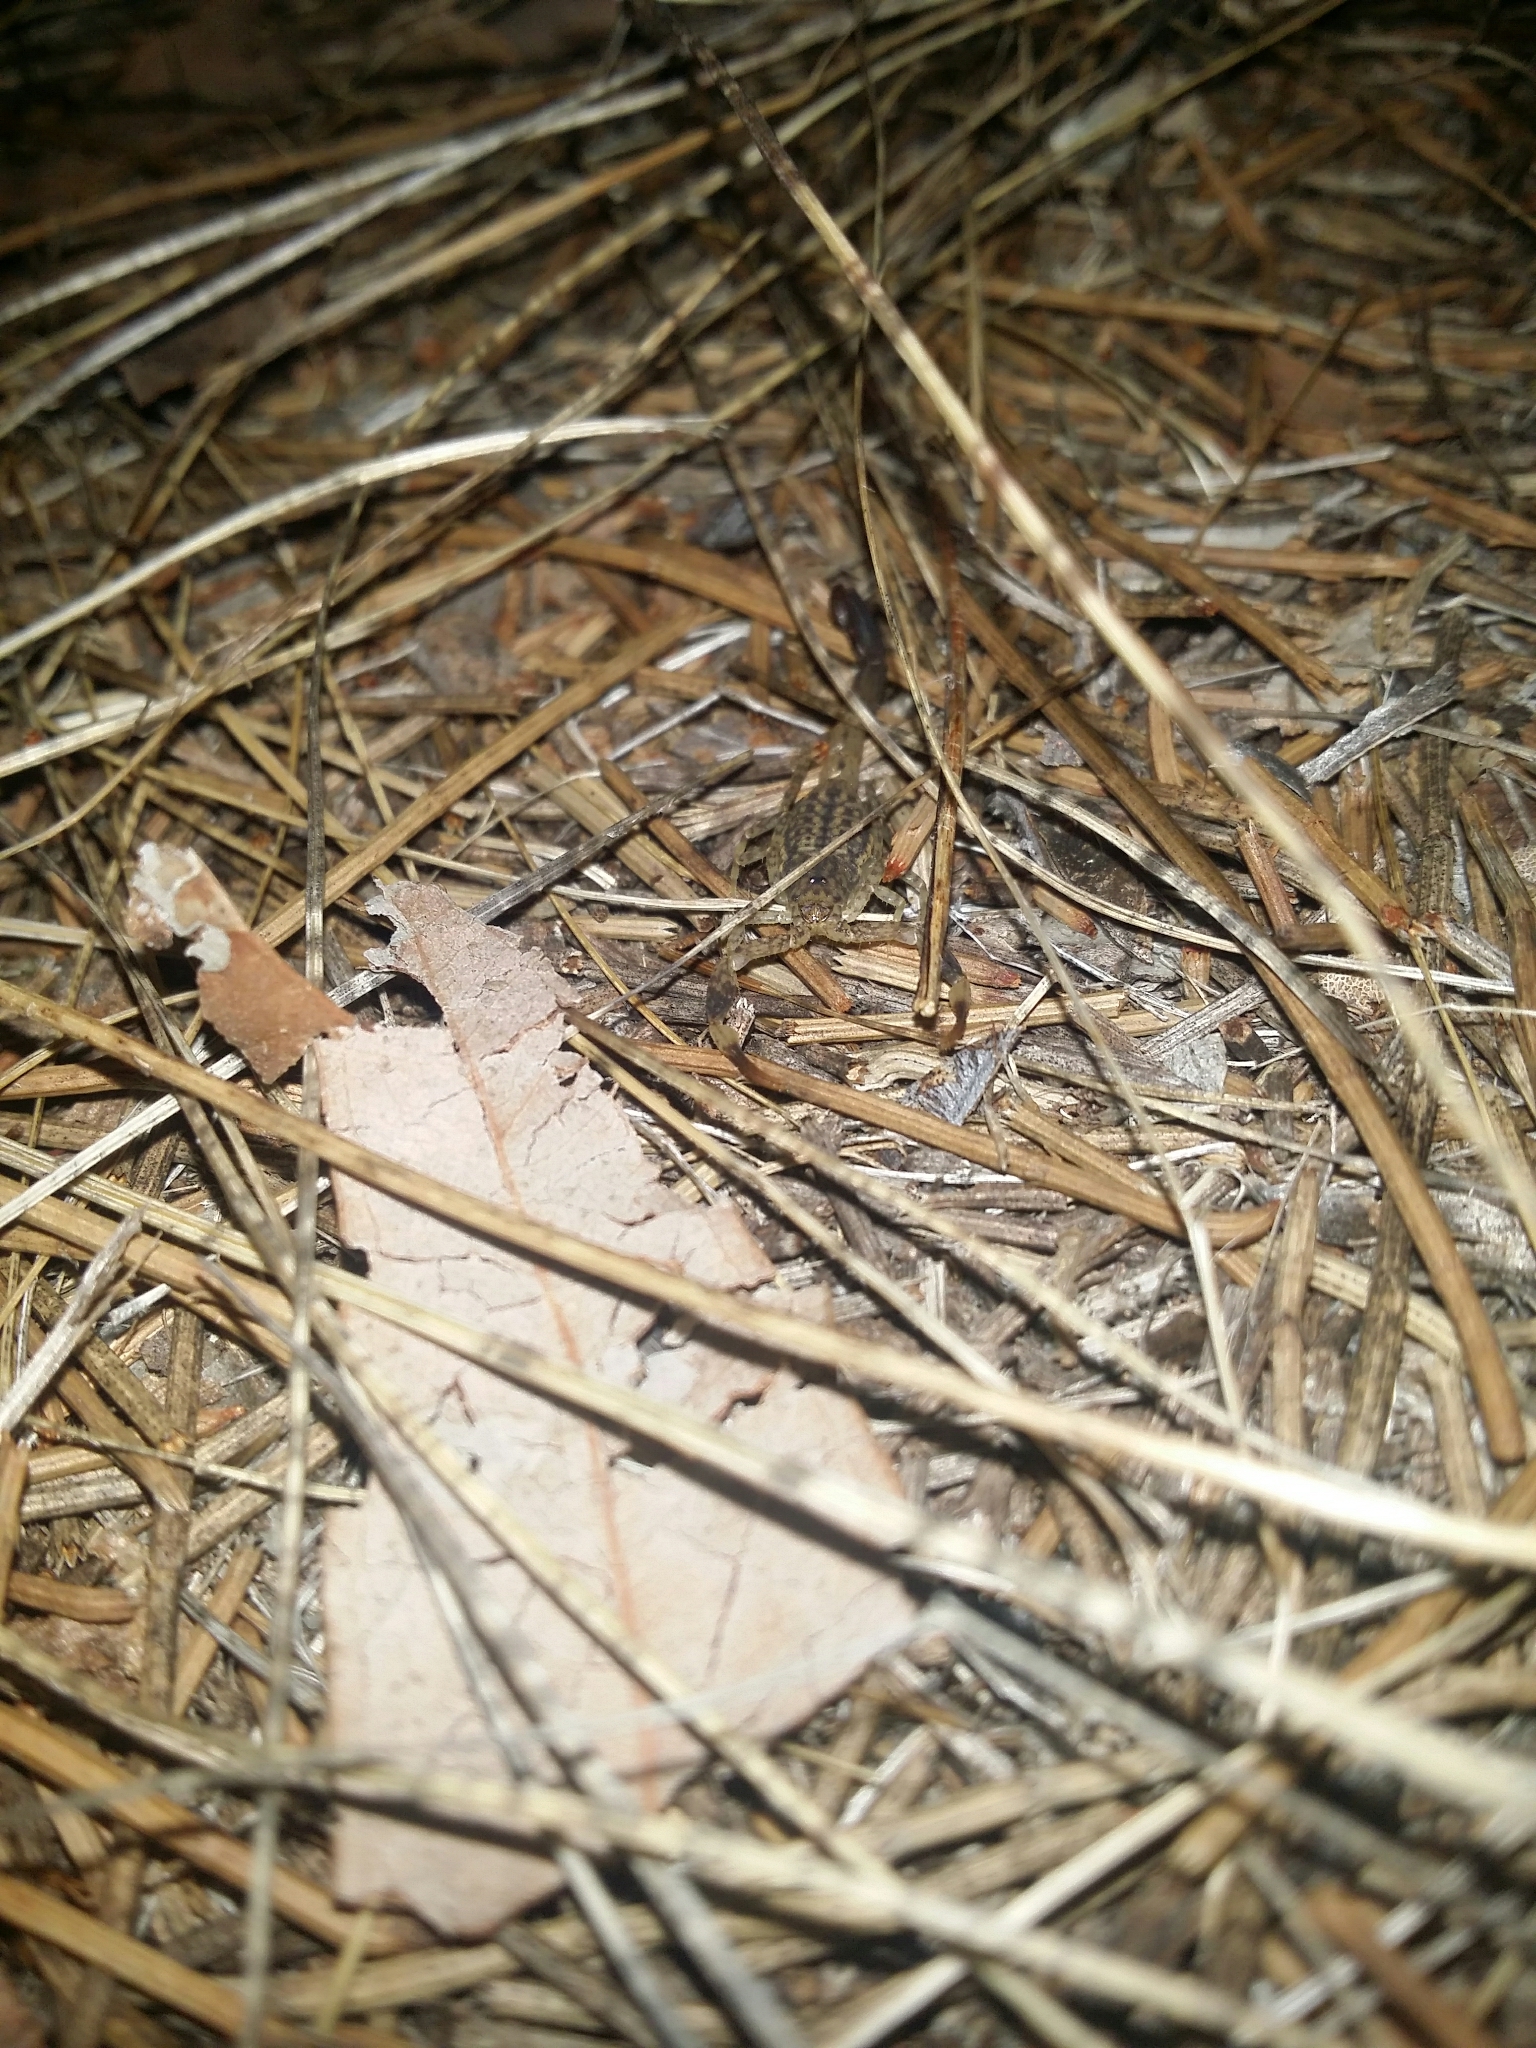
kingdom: Animalia
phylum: Arthropoda
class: Arachnida
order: Scorpiones
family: Buthidae
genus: Lychas
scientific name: Lychas marmoreus
